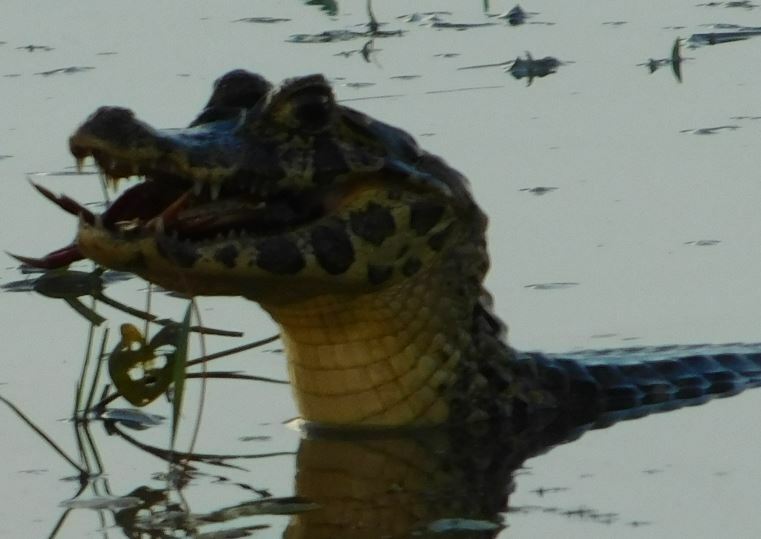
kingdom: Animalia
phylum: Chordata
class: Crocodylia
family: Alligatoridae
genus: Caiman
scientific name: Caiman yacare
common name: Yacare caiman
